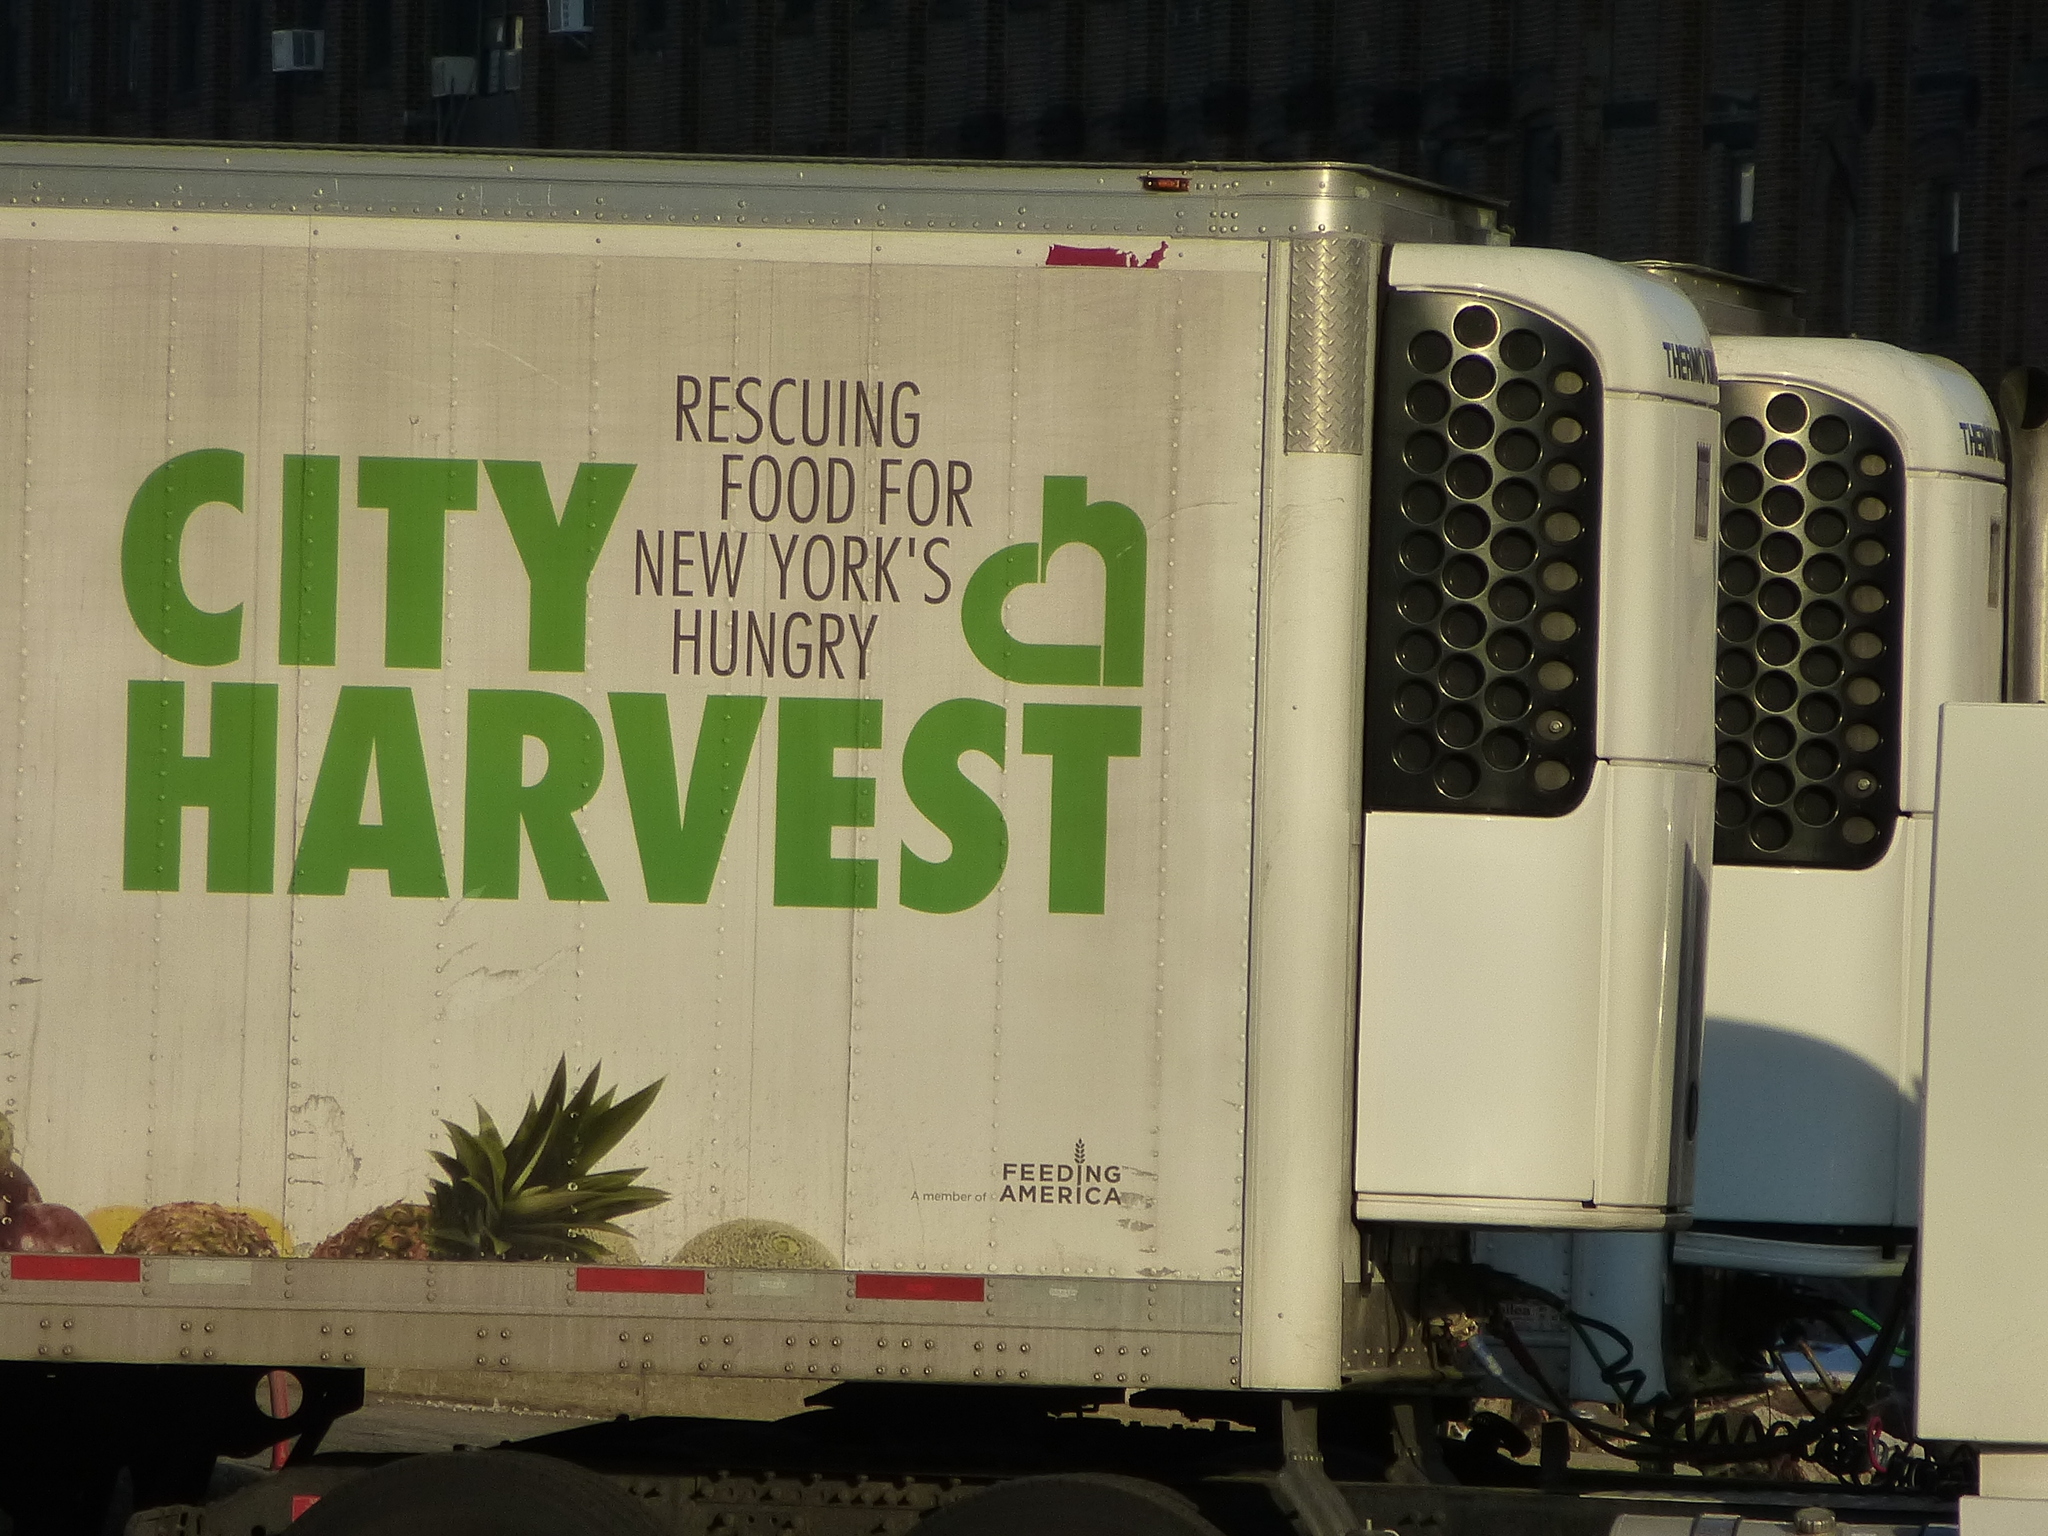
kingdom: Animalia
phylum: Chordata
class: Mammalia
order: Carnivora
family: Felidae
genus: Felis
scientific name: Felis catus
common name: Domestic cat
